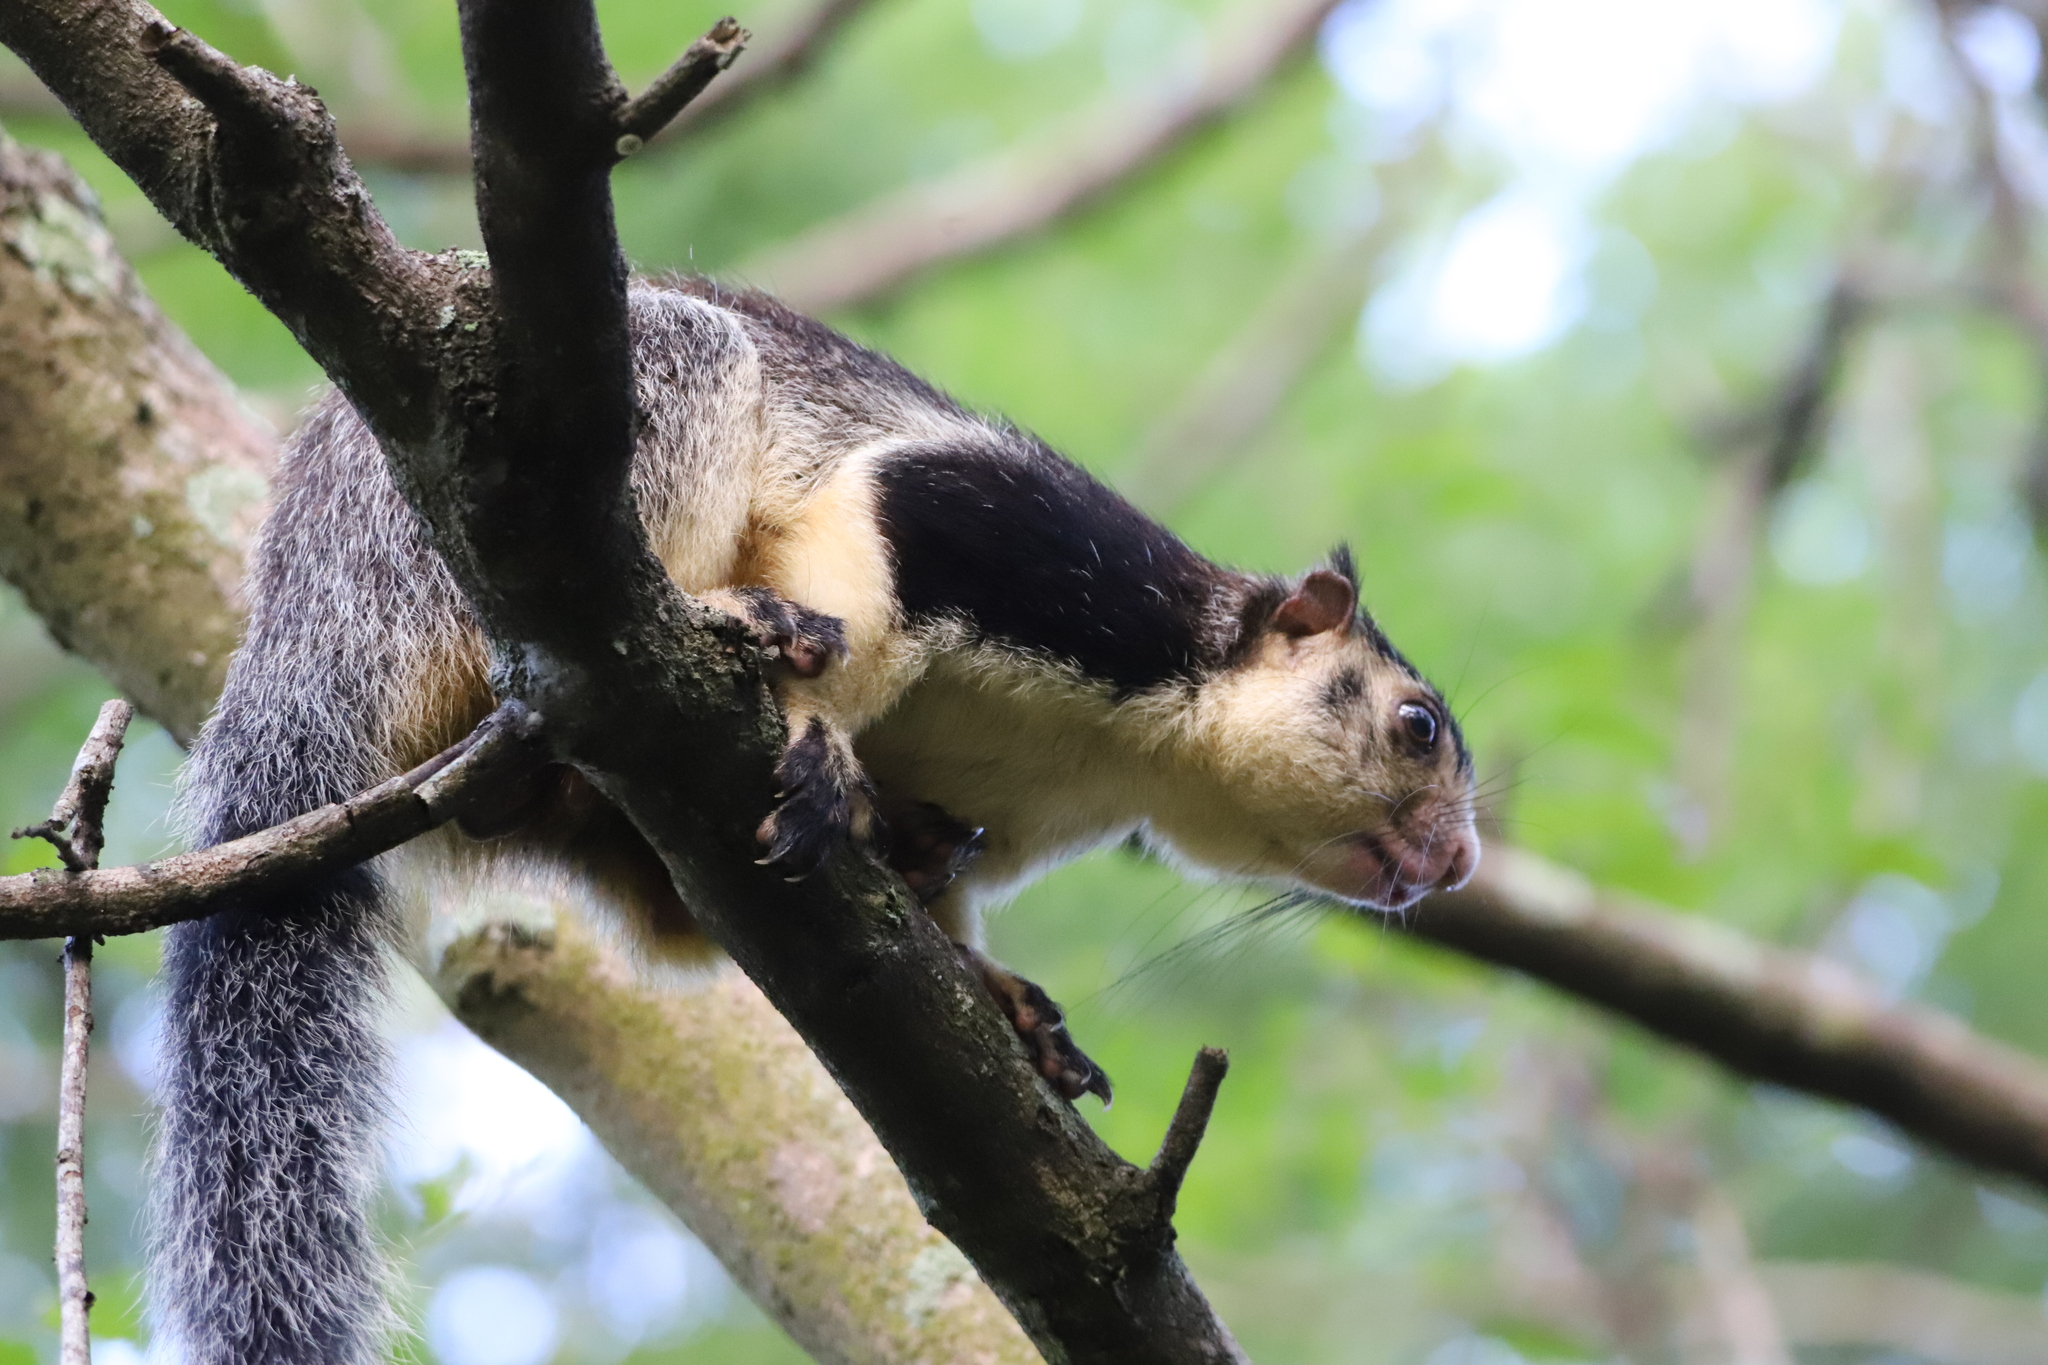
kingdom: Animalia
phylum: Chordata
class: Mammalia
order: Rodentia
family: Sciuridae
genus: Ratufa
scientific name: Ratufa macroura
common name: Sri lankan giant squirrel
